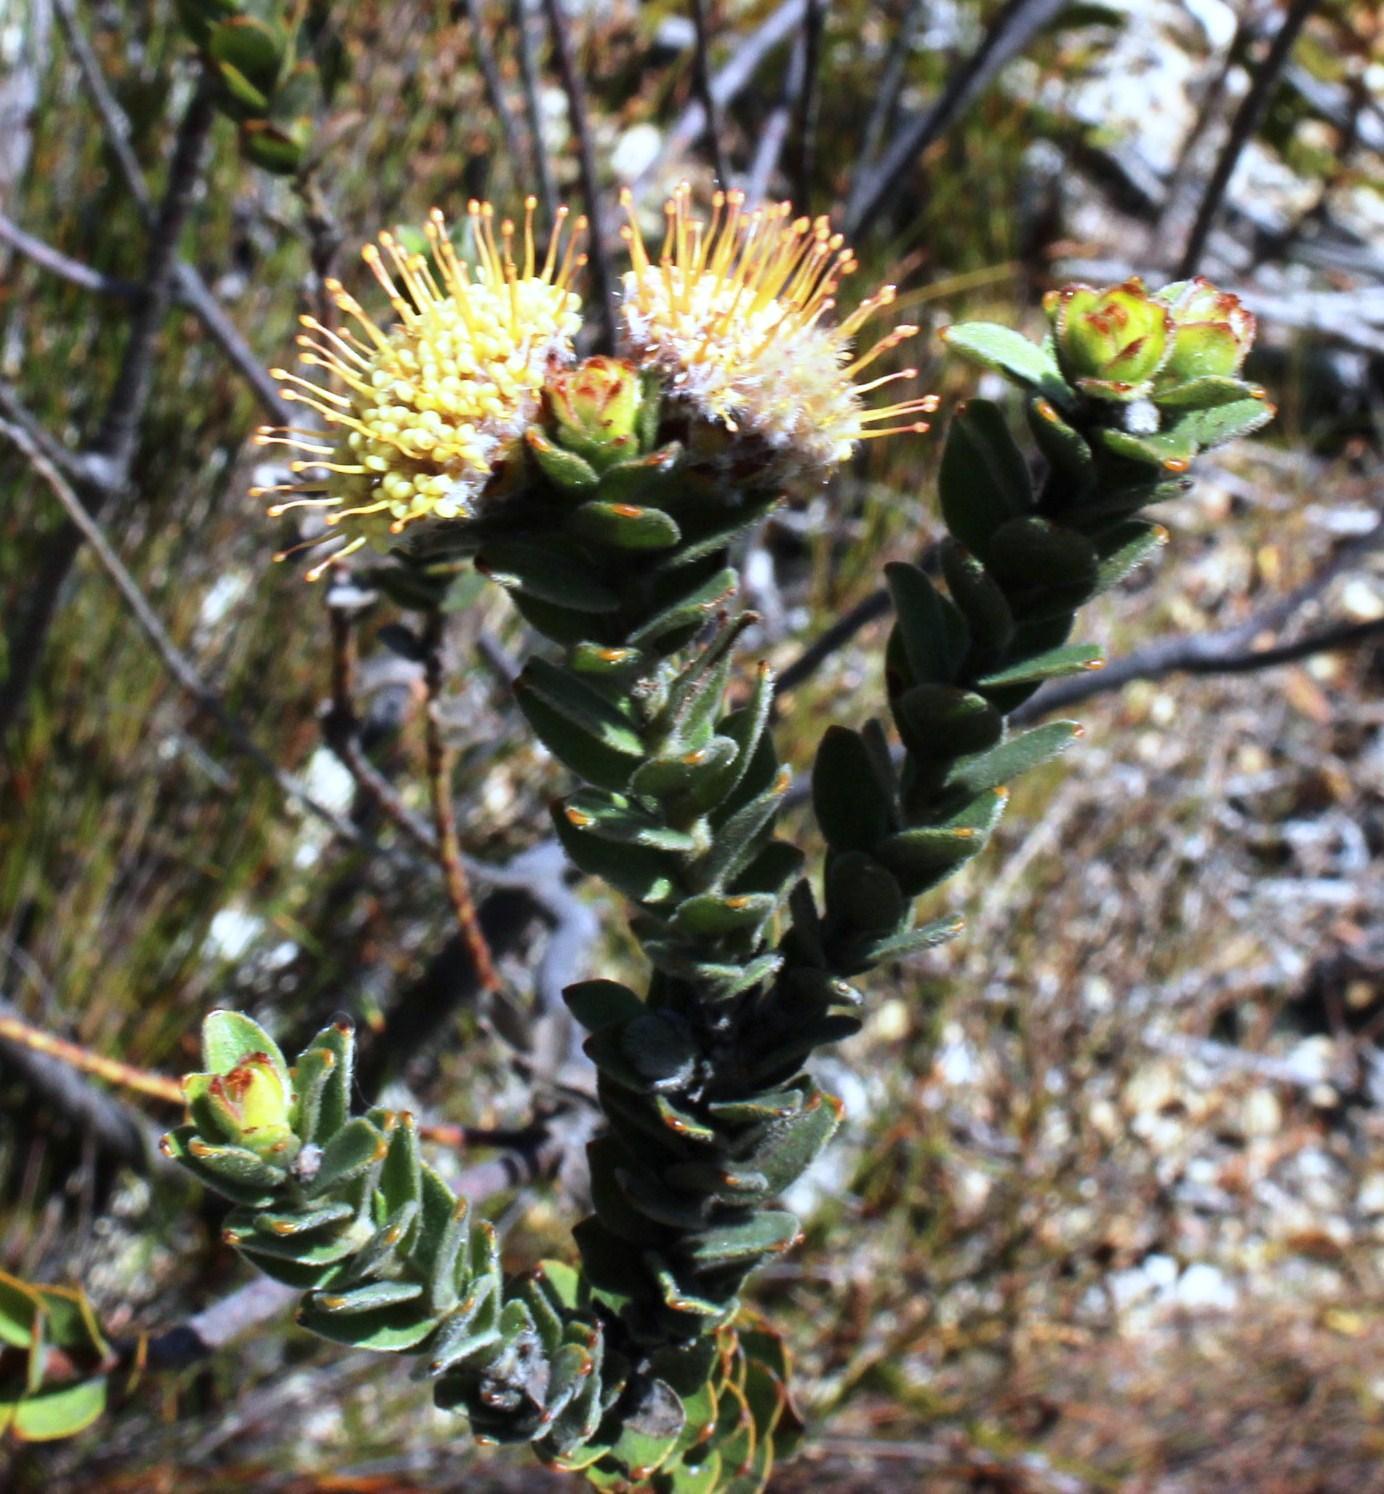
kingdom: Plantae
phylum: Tracheophyta
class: Magnoliopsida
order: Proteales
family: Proteaceae
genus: Leucospermum
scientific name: Leucospermum truncatulum
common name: Oval-leaf pincushion
